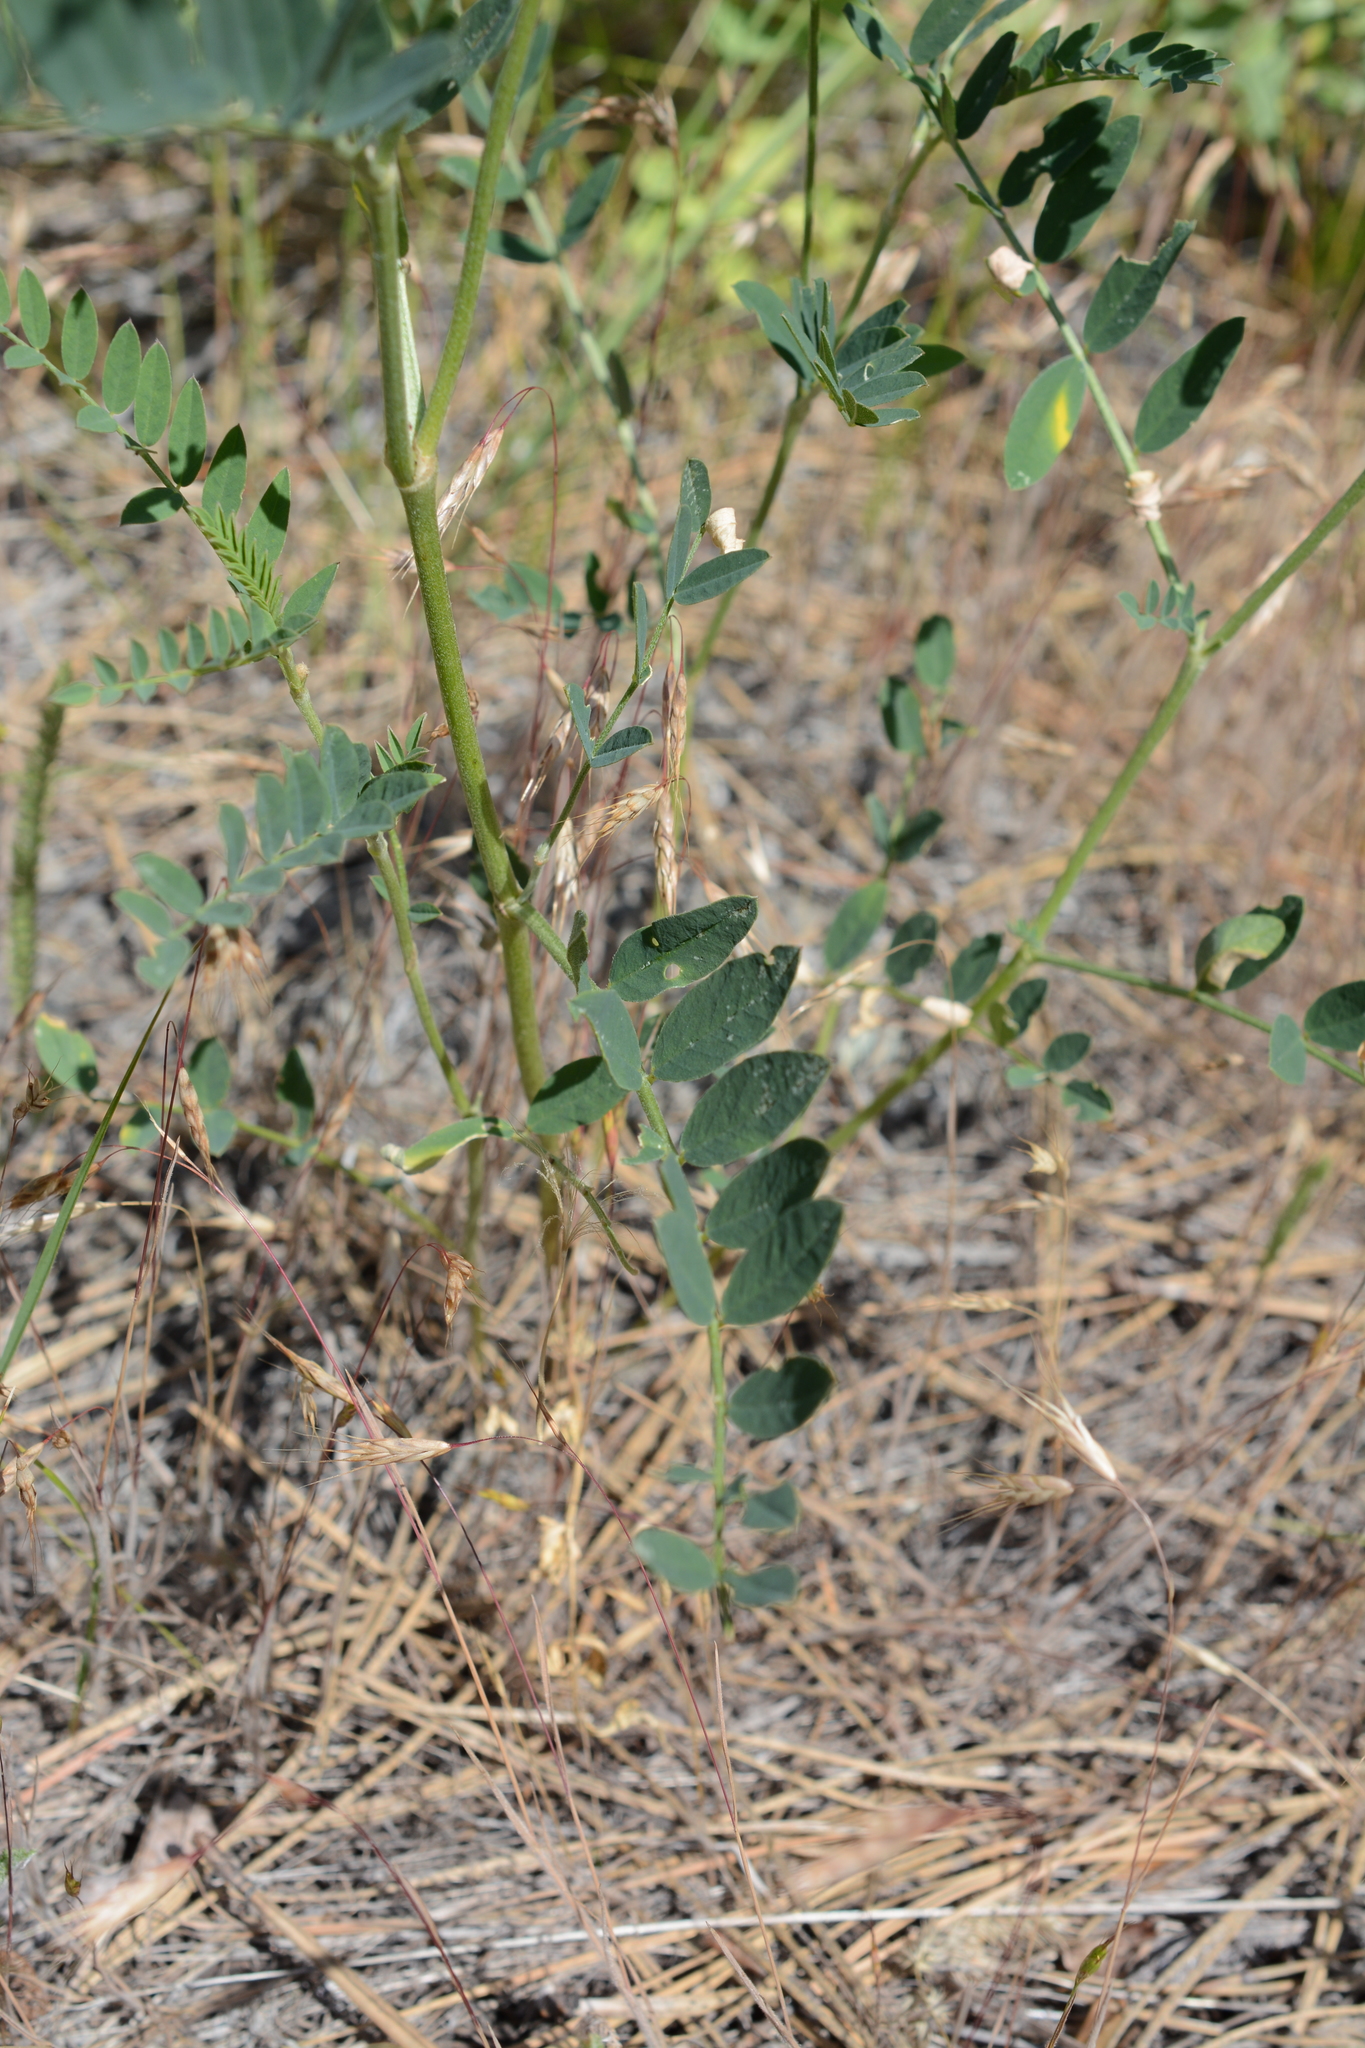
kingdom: Plantae
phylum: Tracheophyta
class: Magnoliopsida
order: Fabales
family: Fabaceae
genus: Astragalus
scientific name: Astragalus canadensis
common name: Canada milk-vetch
